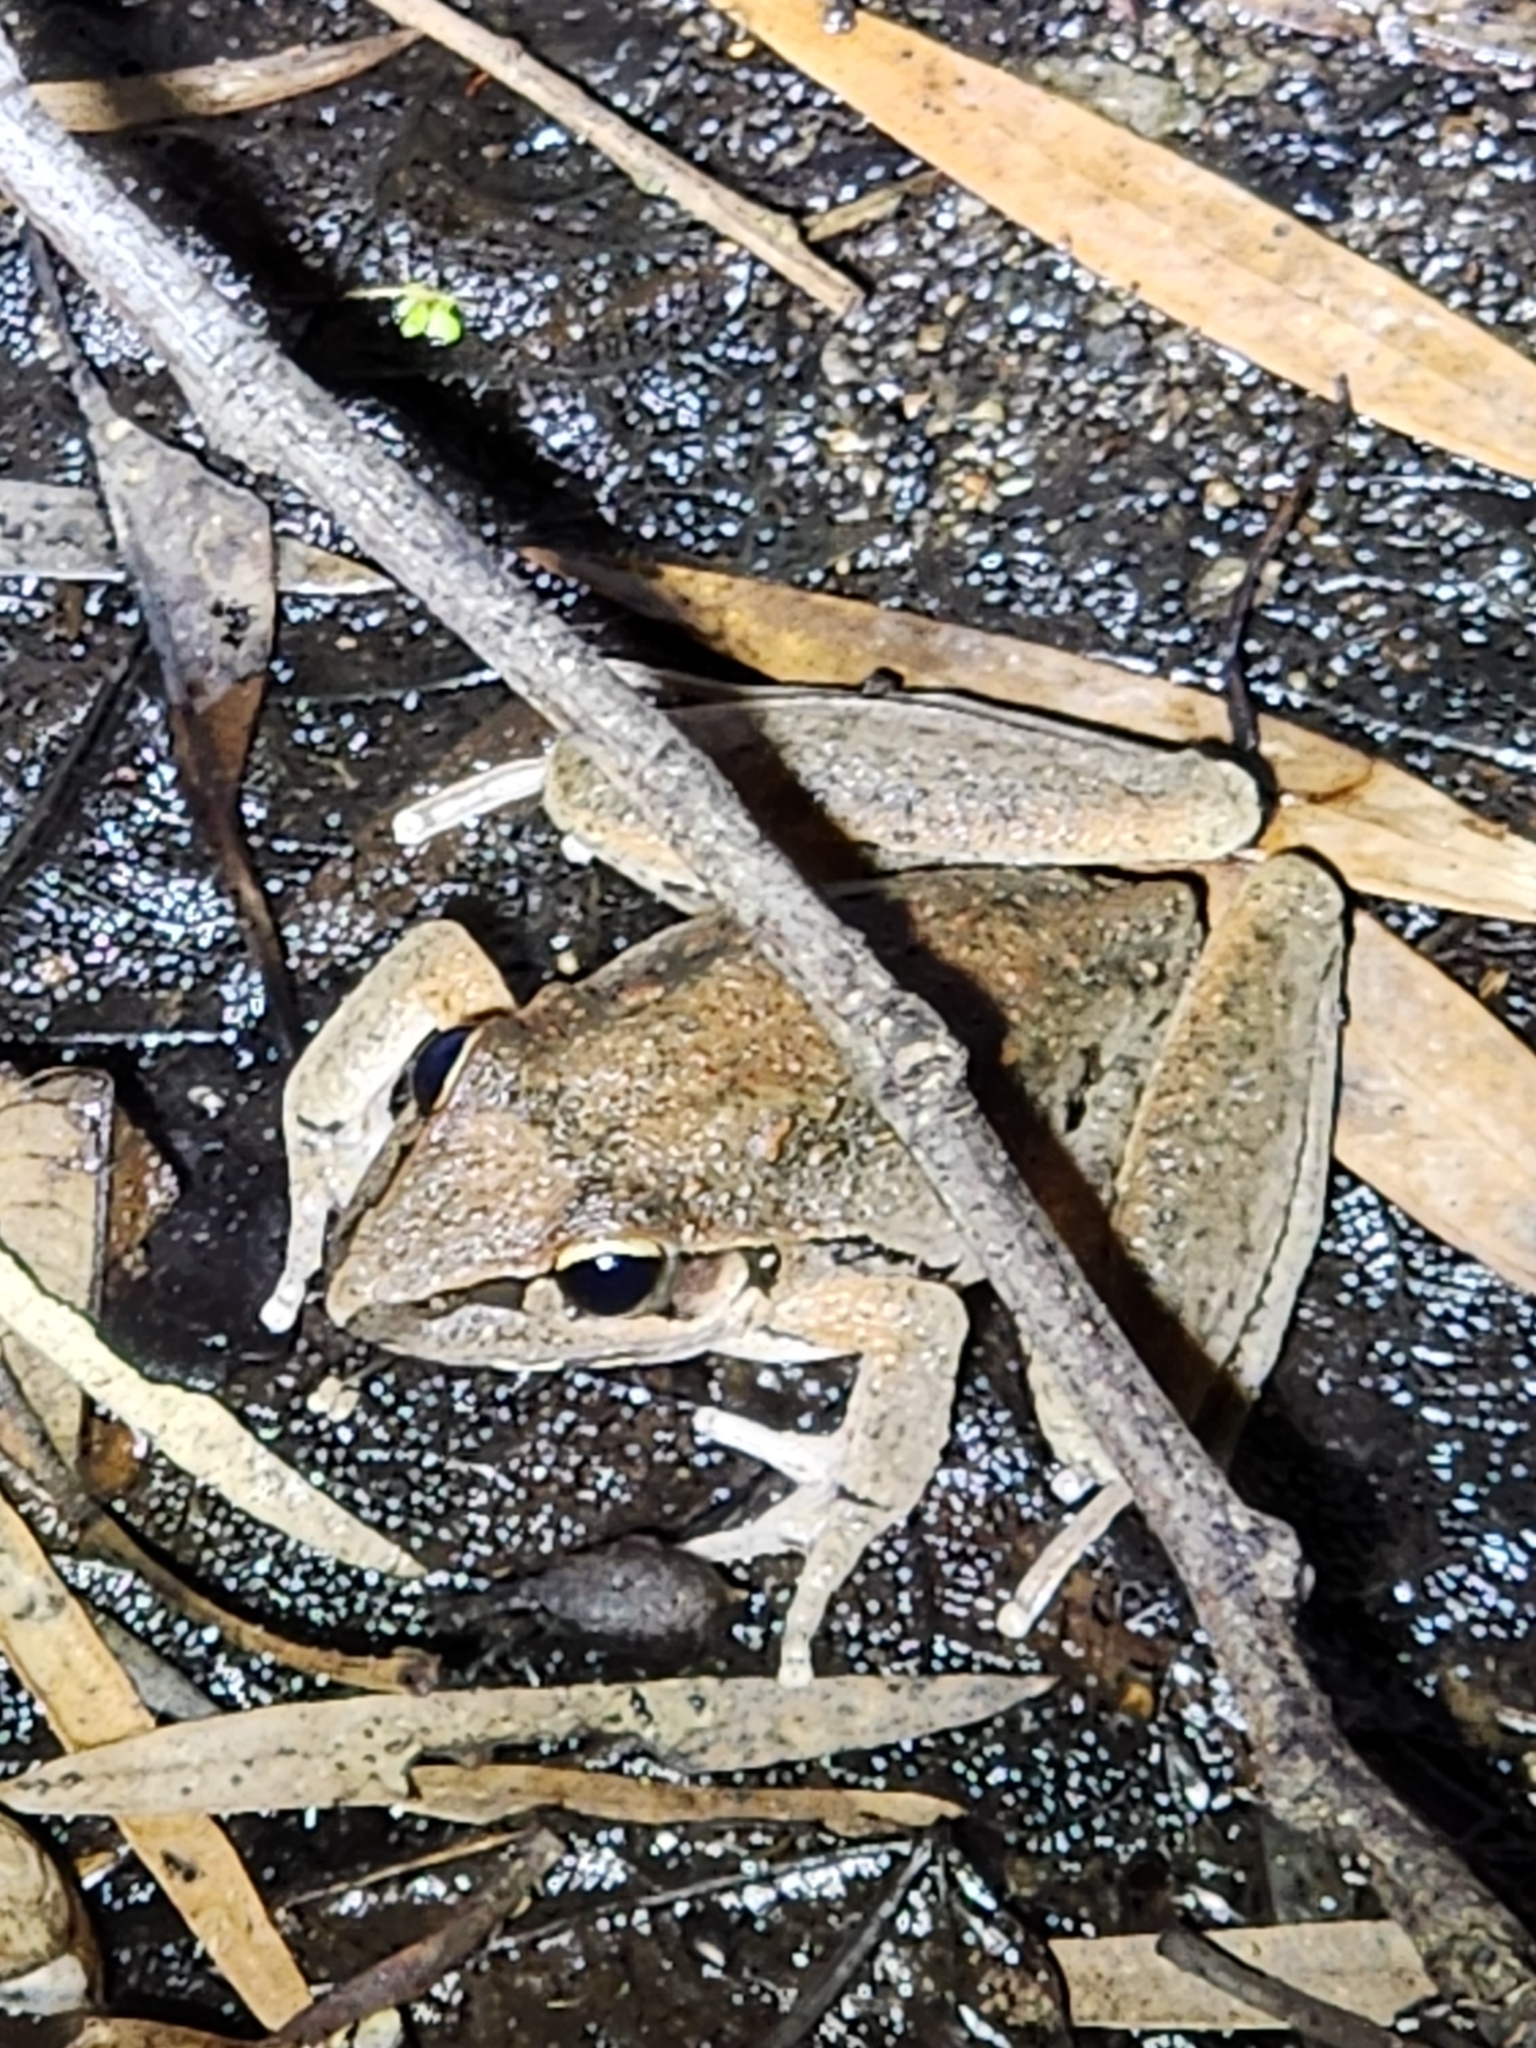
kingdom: Animalia
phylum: Chordata
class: Amphibia
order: Anura
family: Pelodryadidae
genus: Litoria
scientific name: Litoria latopalmata
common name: Broad-palmed rocket frog
